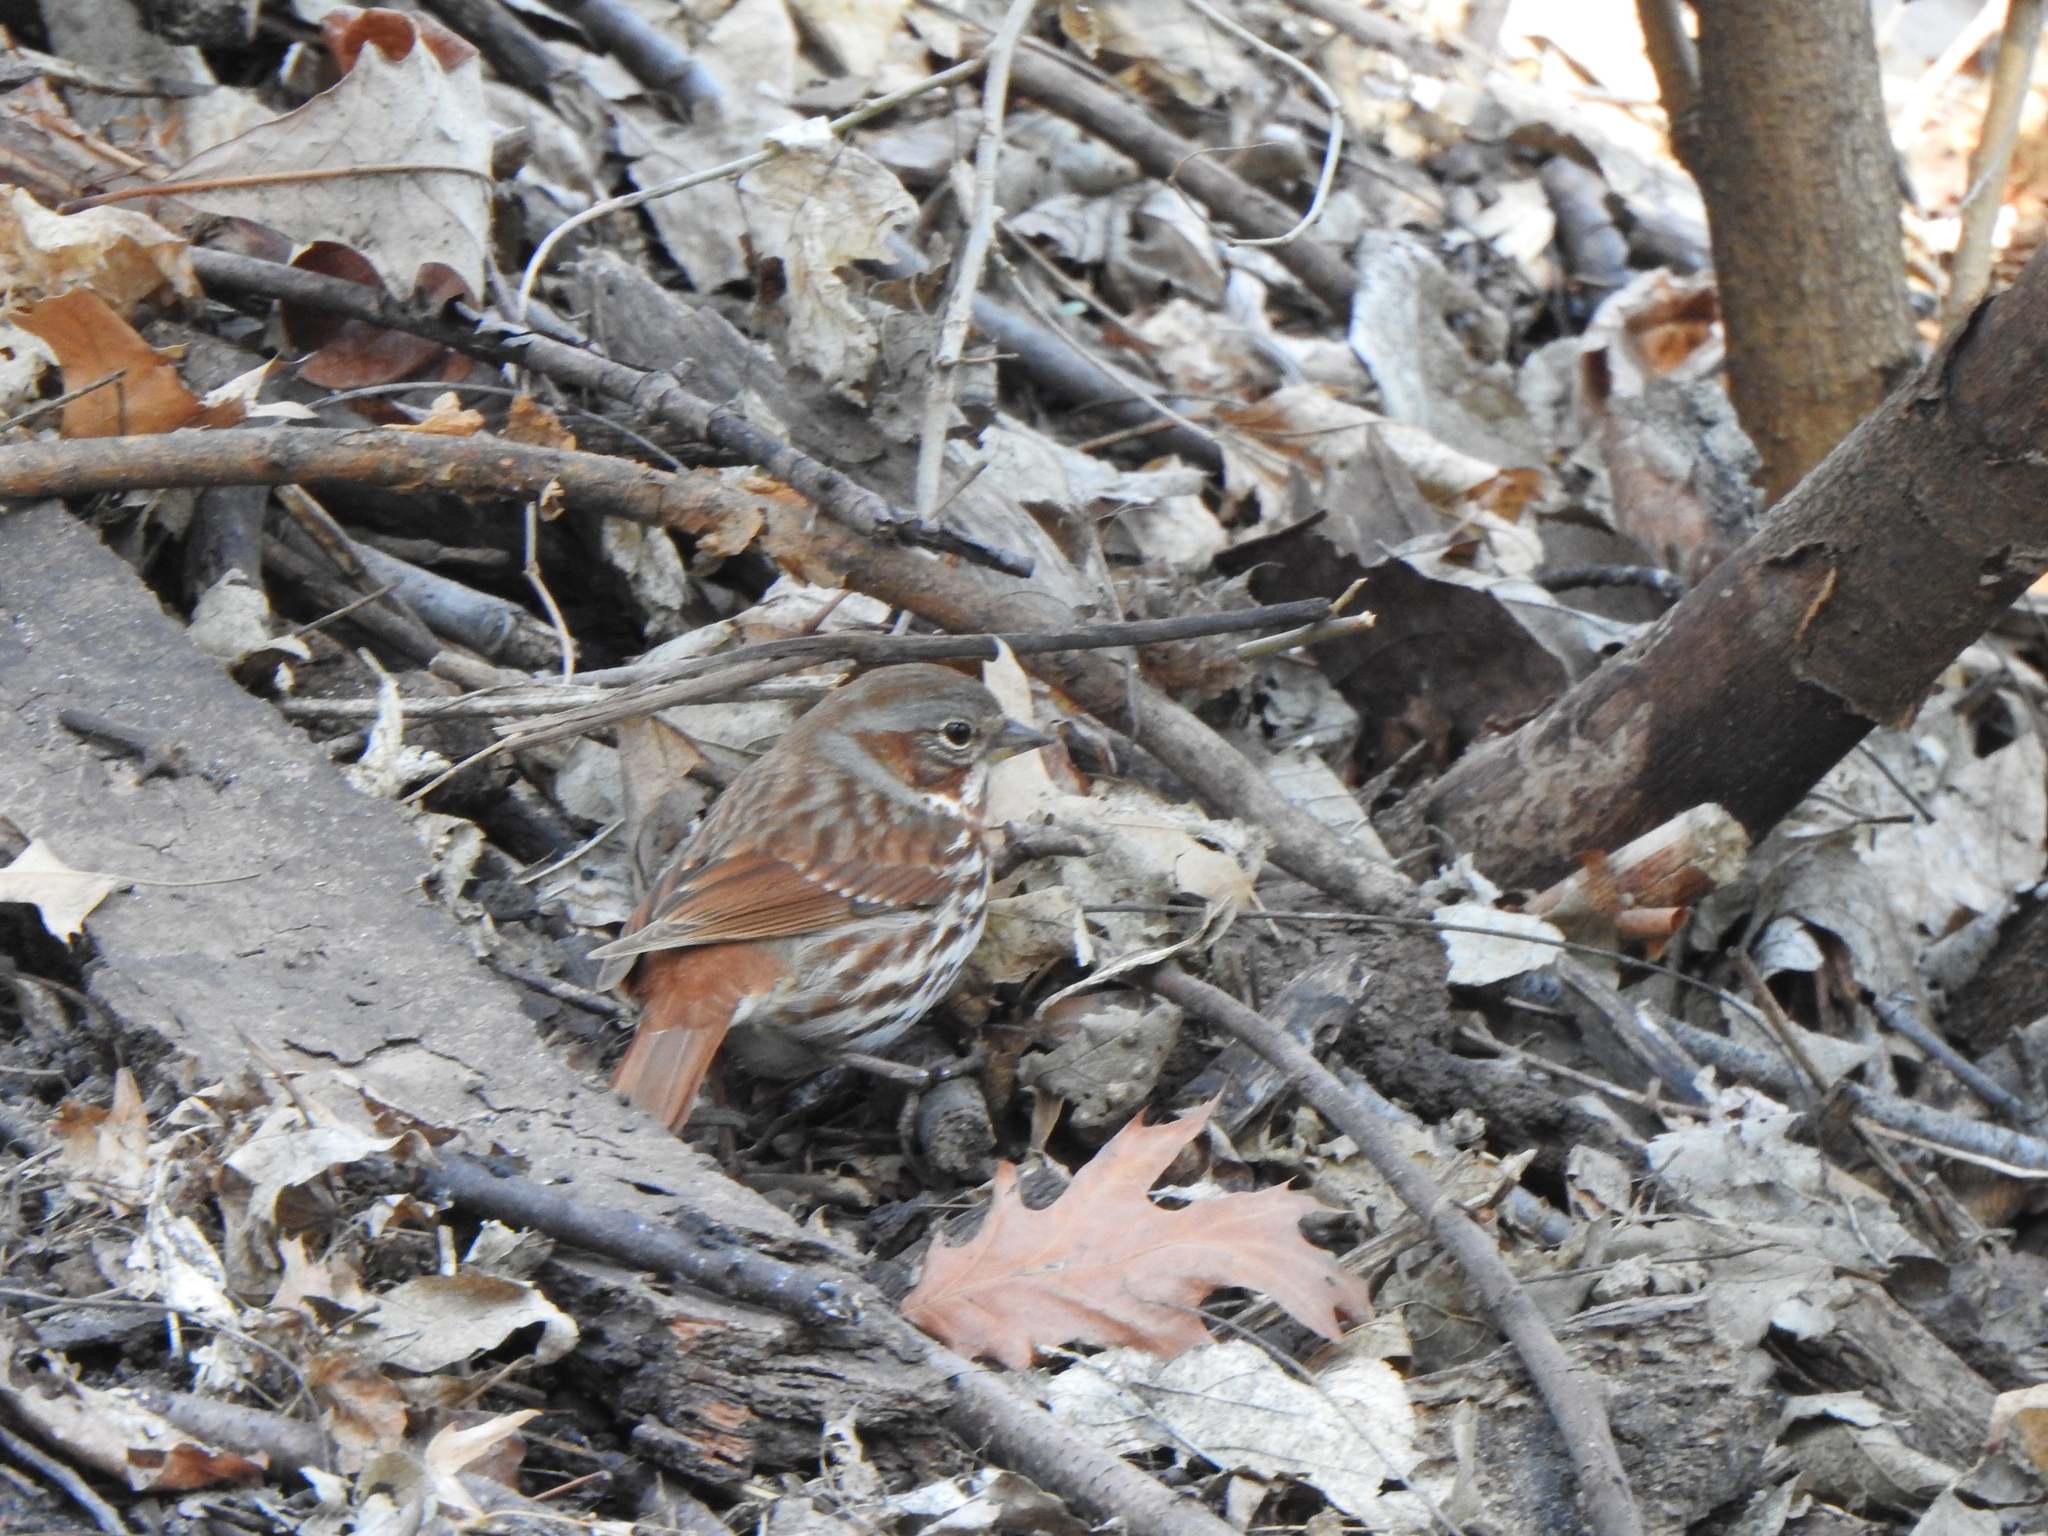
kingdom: Animalia
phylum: Chordata
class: Aves
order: Passeriformes
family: Passerellidae
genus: Passerella
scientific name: Passerella iliaca
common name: Fox sparrow
